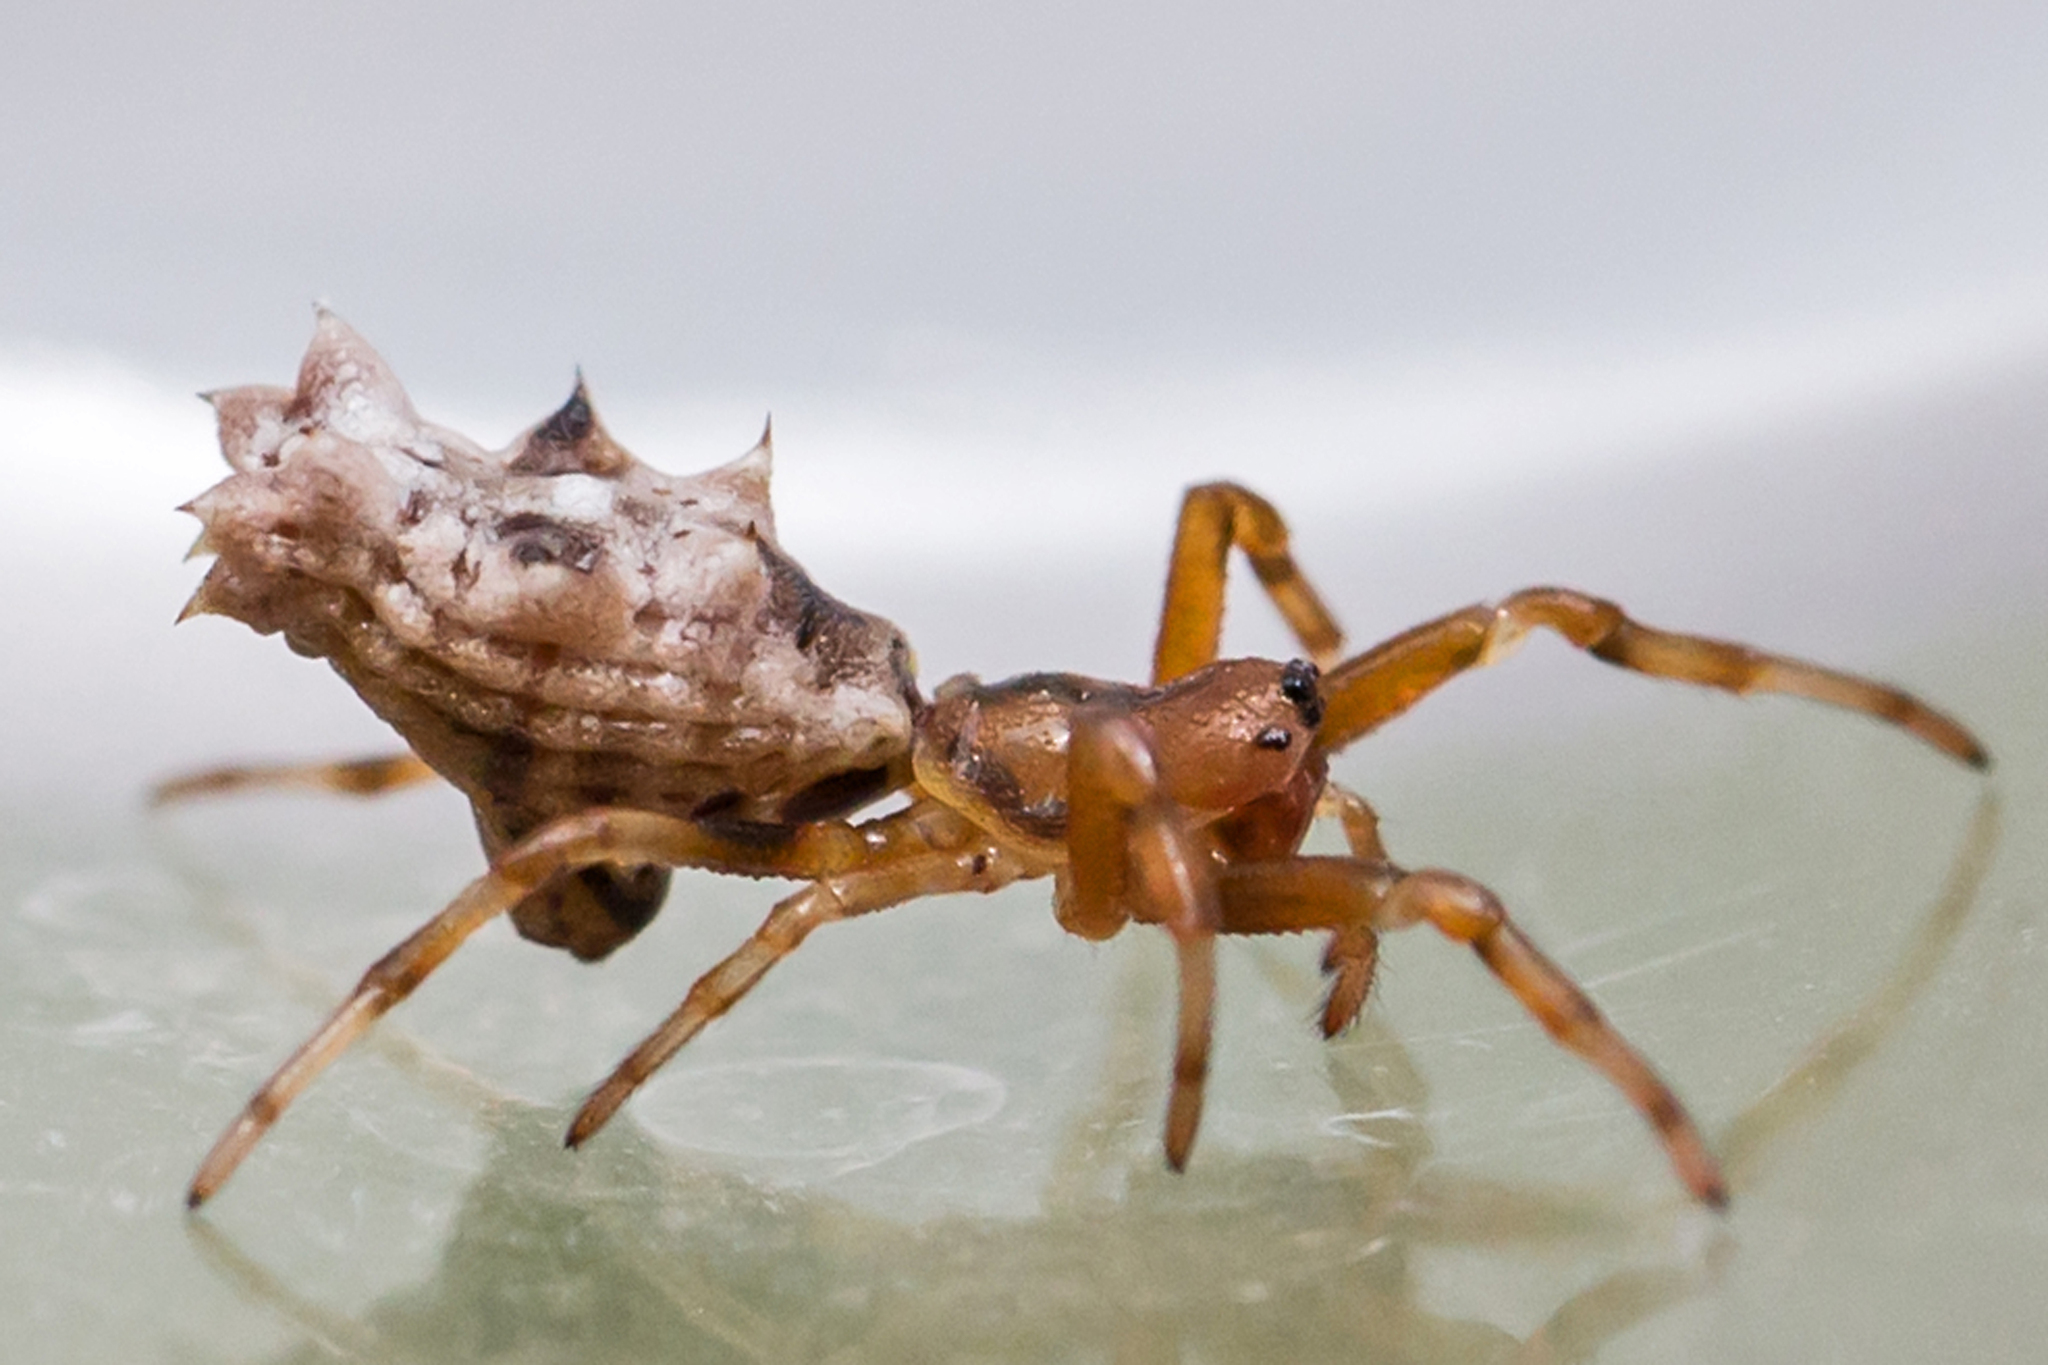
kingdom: Animalia
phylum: Arthropoda
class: Arachnida
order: Araneae
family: Araneidae
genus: Micrathena
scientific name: Micrathena gracilis
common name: Orb weavers
